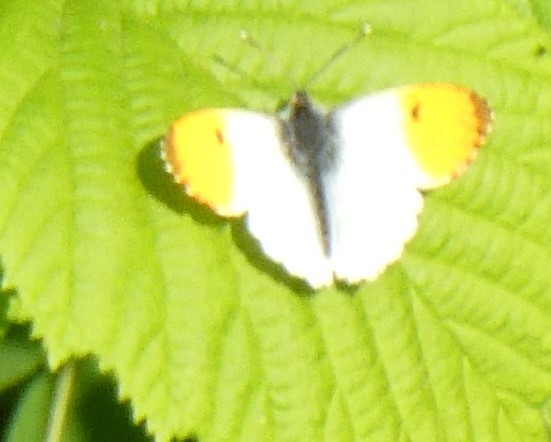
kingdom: Animalia
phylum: Arthropoda
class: Insecta
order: Lepidoptera
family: Pieridae
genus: Anthocharis
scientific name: Anthocharis cardamines
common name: Orange-tip
